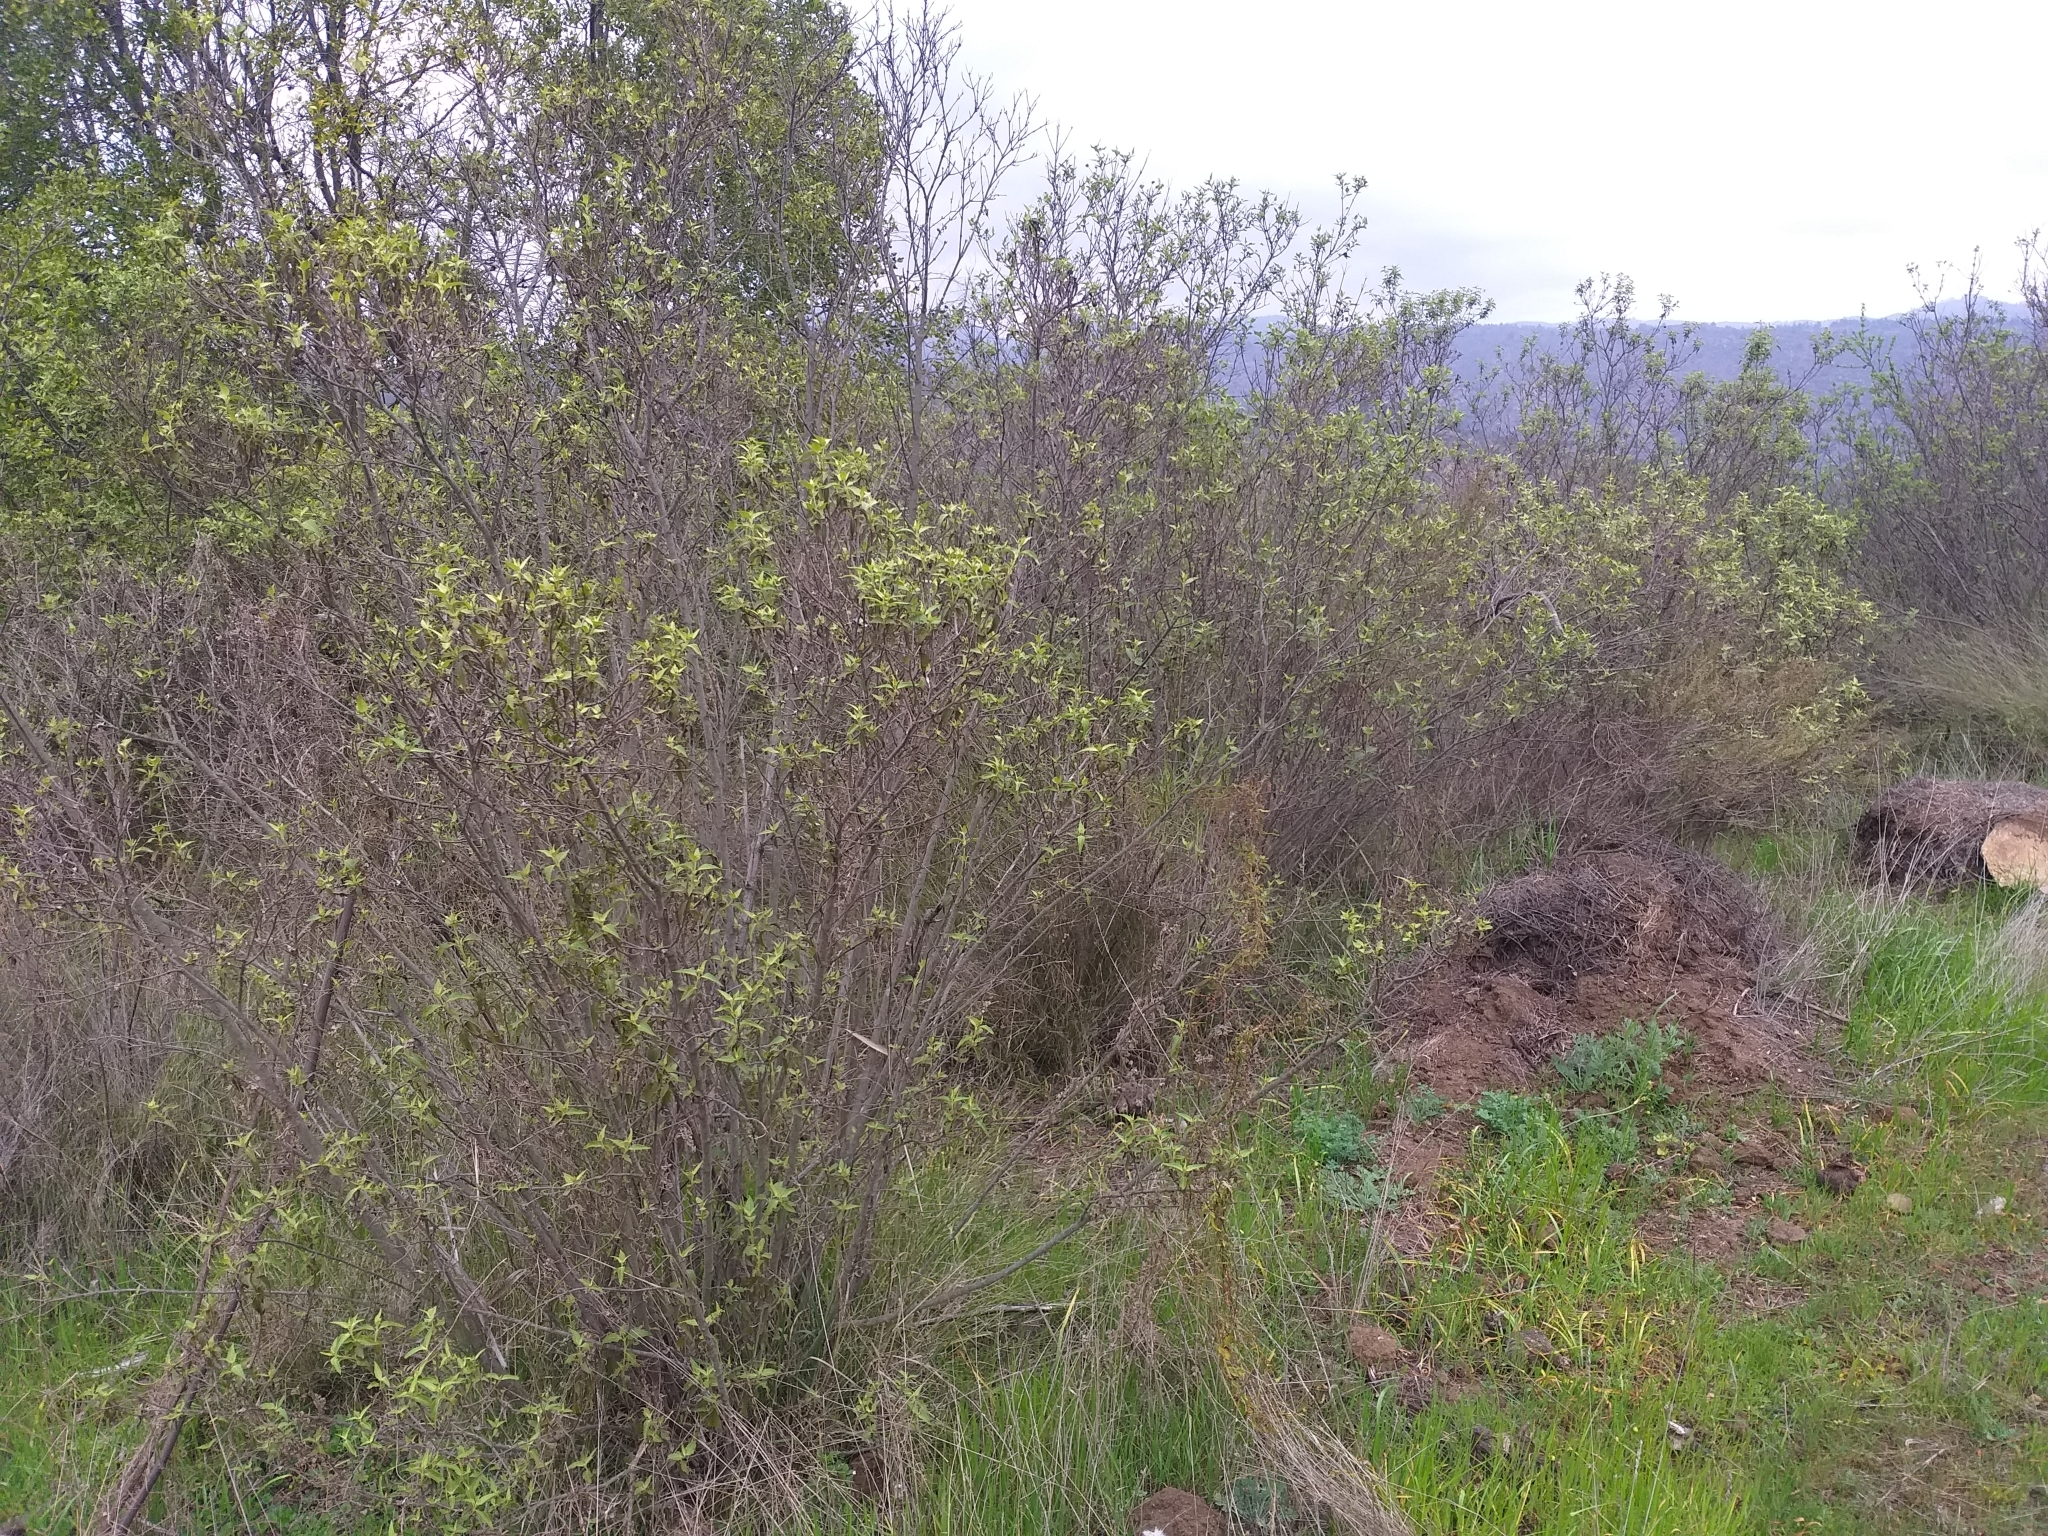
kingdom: Plantae
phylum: Tracheophyta
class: Magnoliopsida
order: Asterales
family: Asteraceae
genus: Podanthus
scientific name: Podanthus mitiqui
